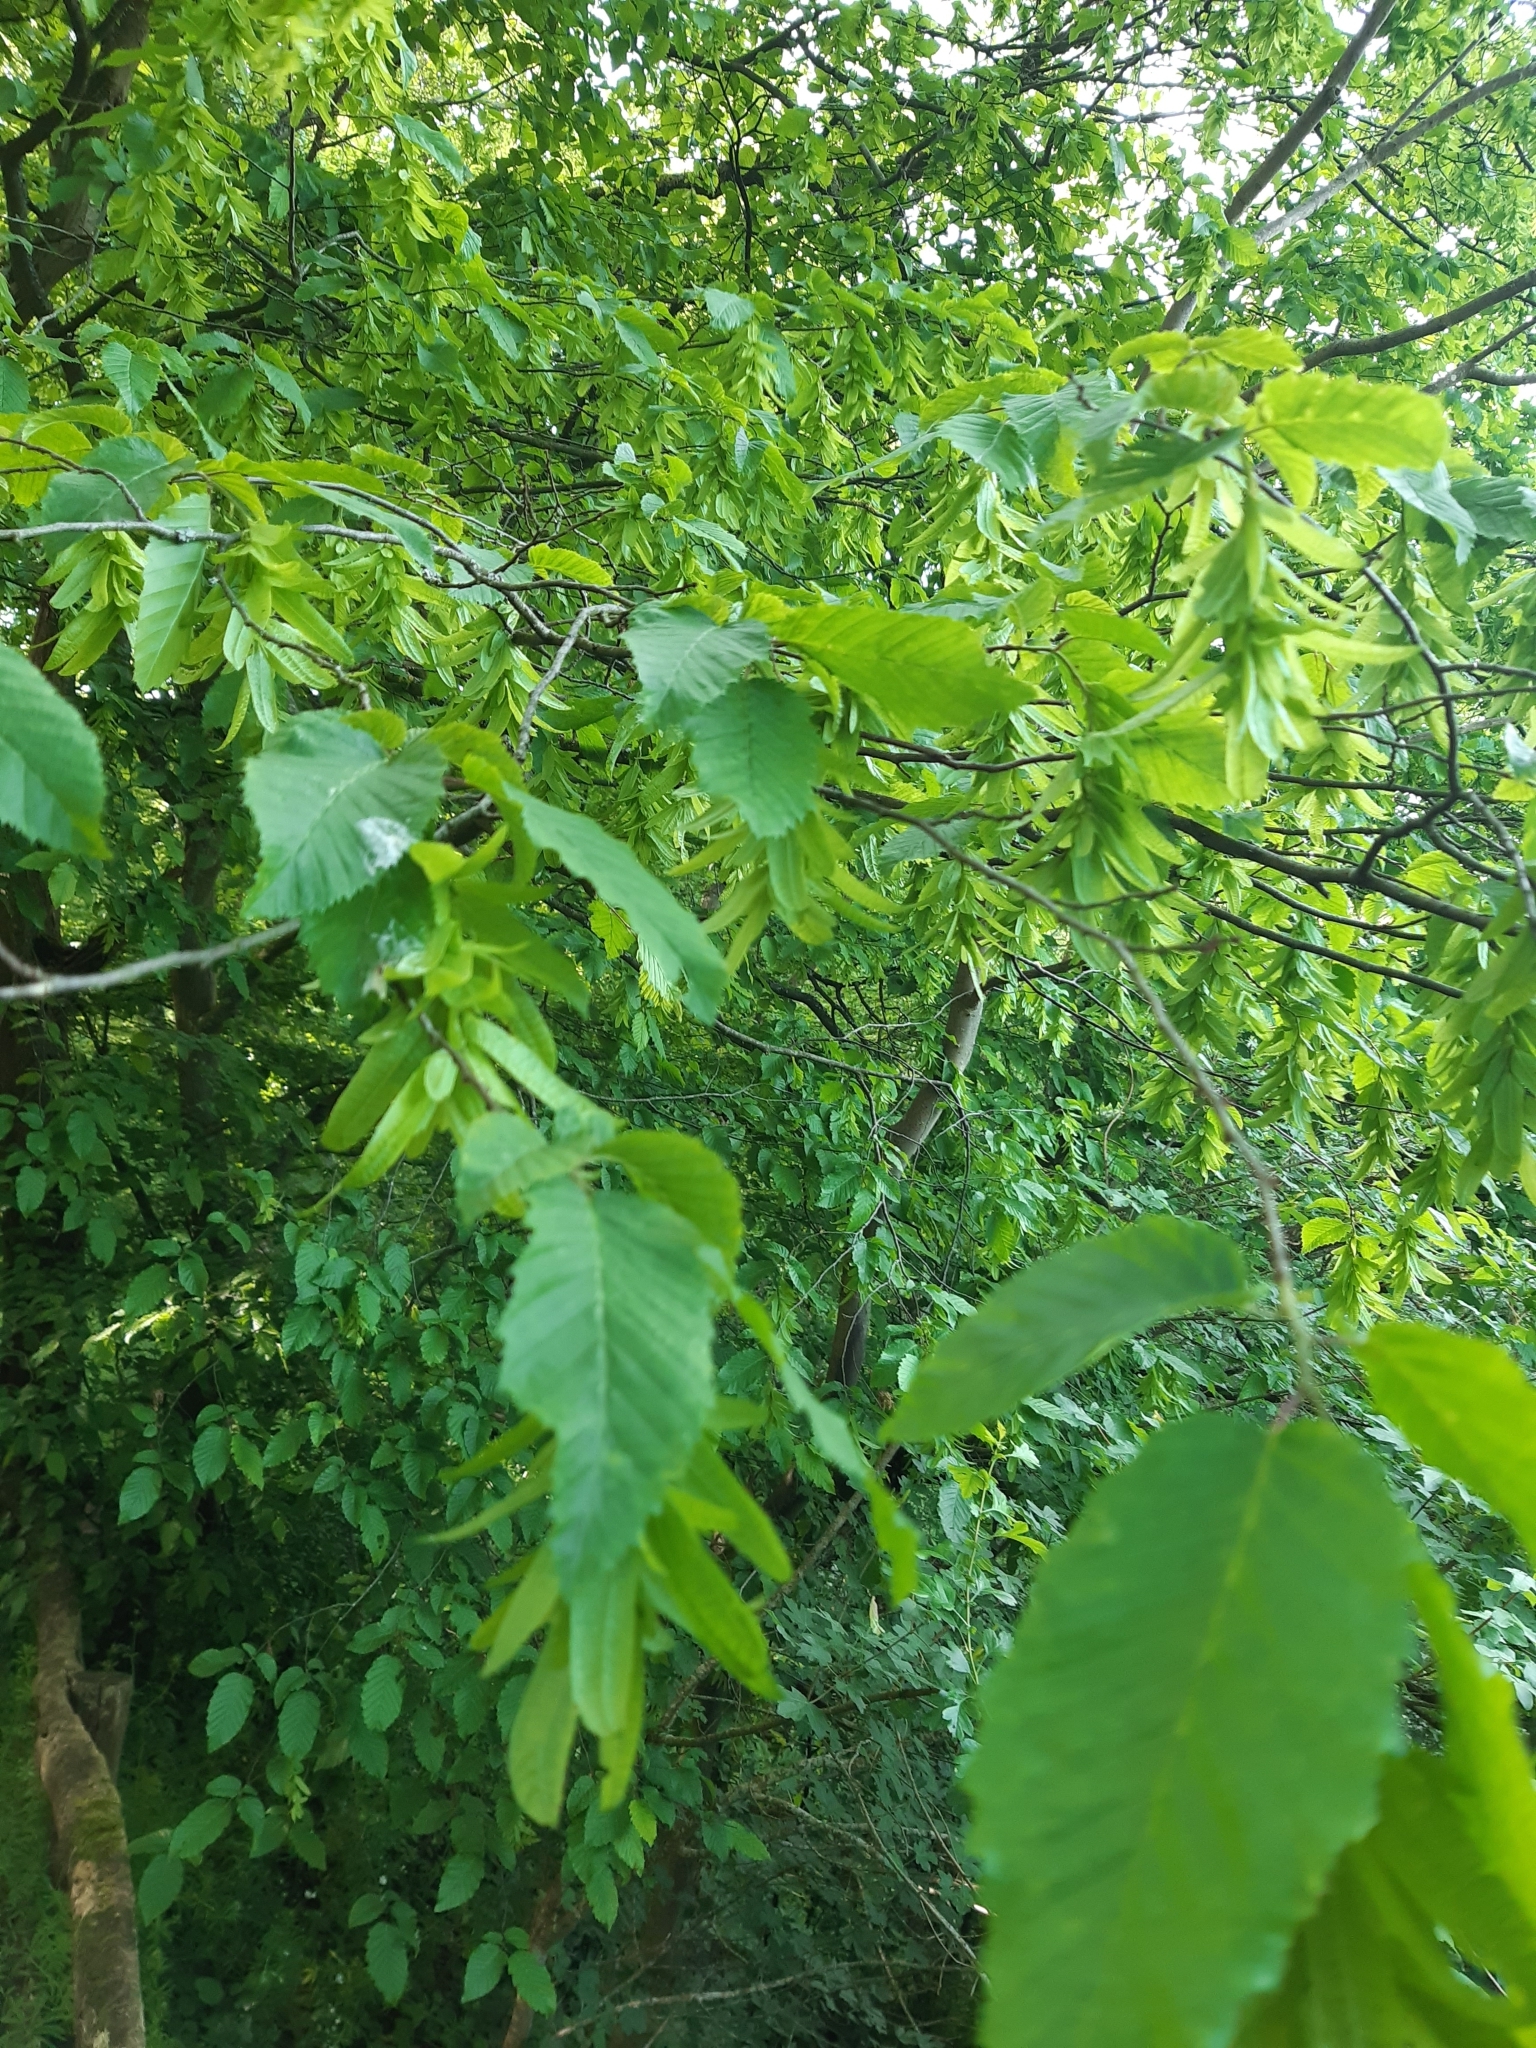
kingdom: Plantae
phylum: Tracheophyta
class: Magnoliopsida
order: Fagales
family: Betulaceae
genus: Carpinus
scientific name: Carpinus betulus
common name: Hornbeam
